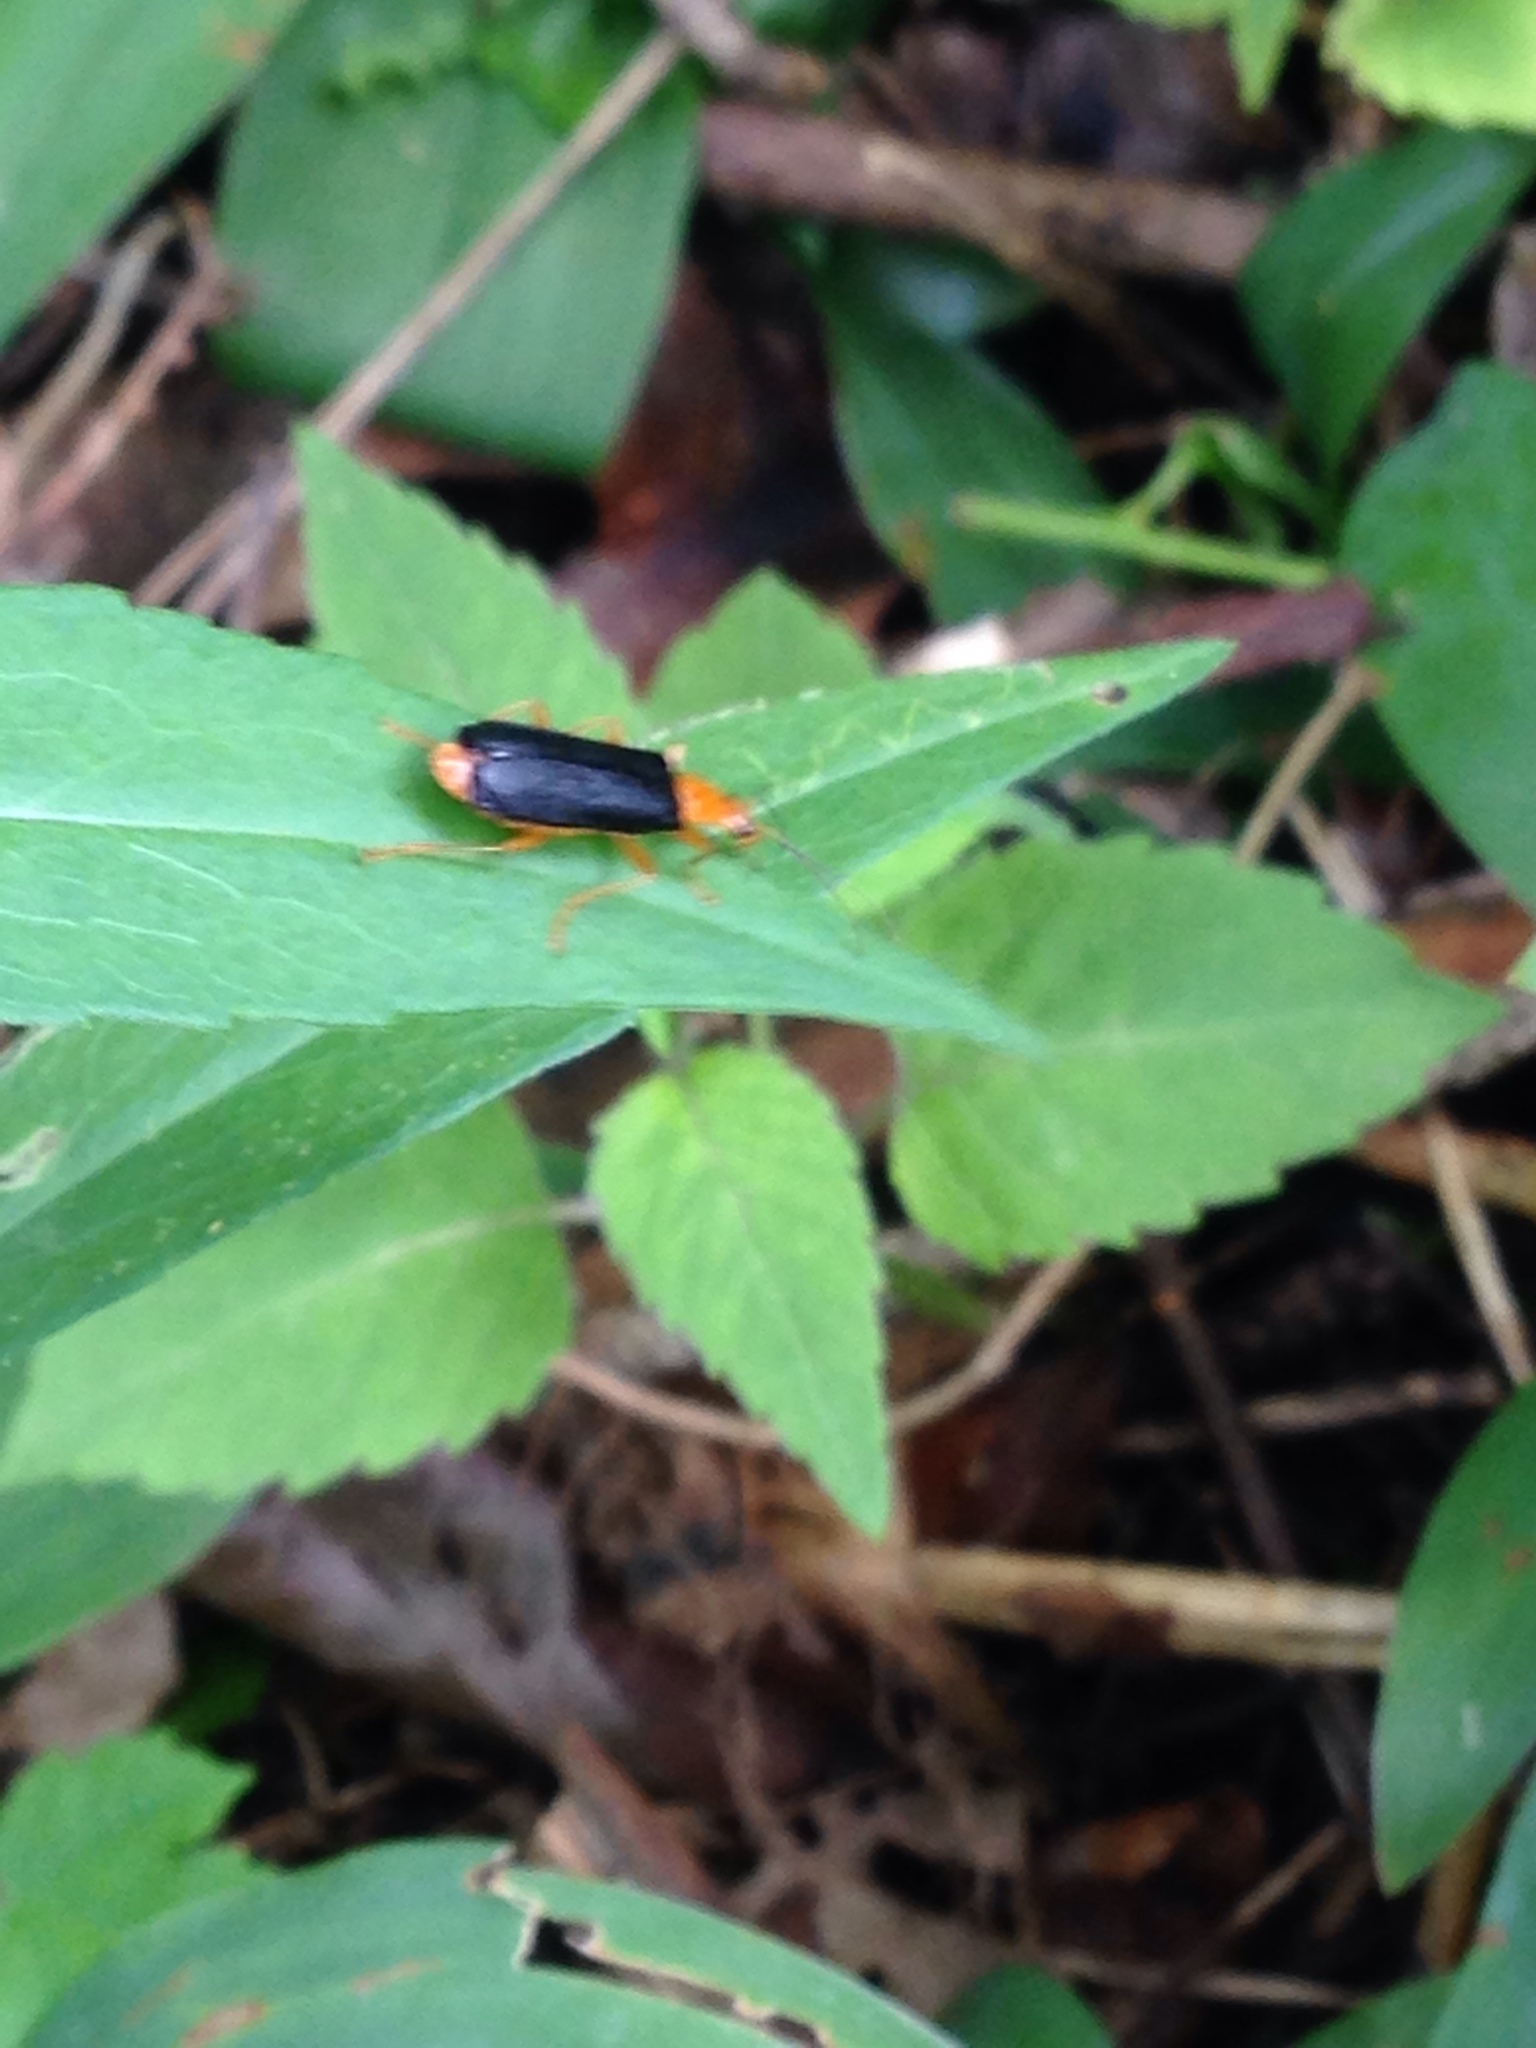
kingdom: Animalia
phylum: Arthropoda
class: Insecta
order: Coleoptera
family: Cantharidae
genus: Podabrus
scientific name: Podabrus fayi
